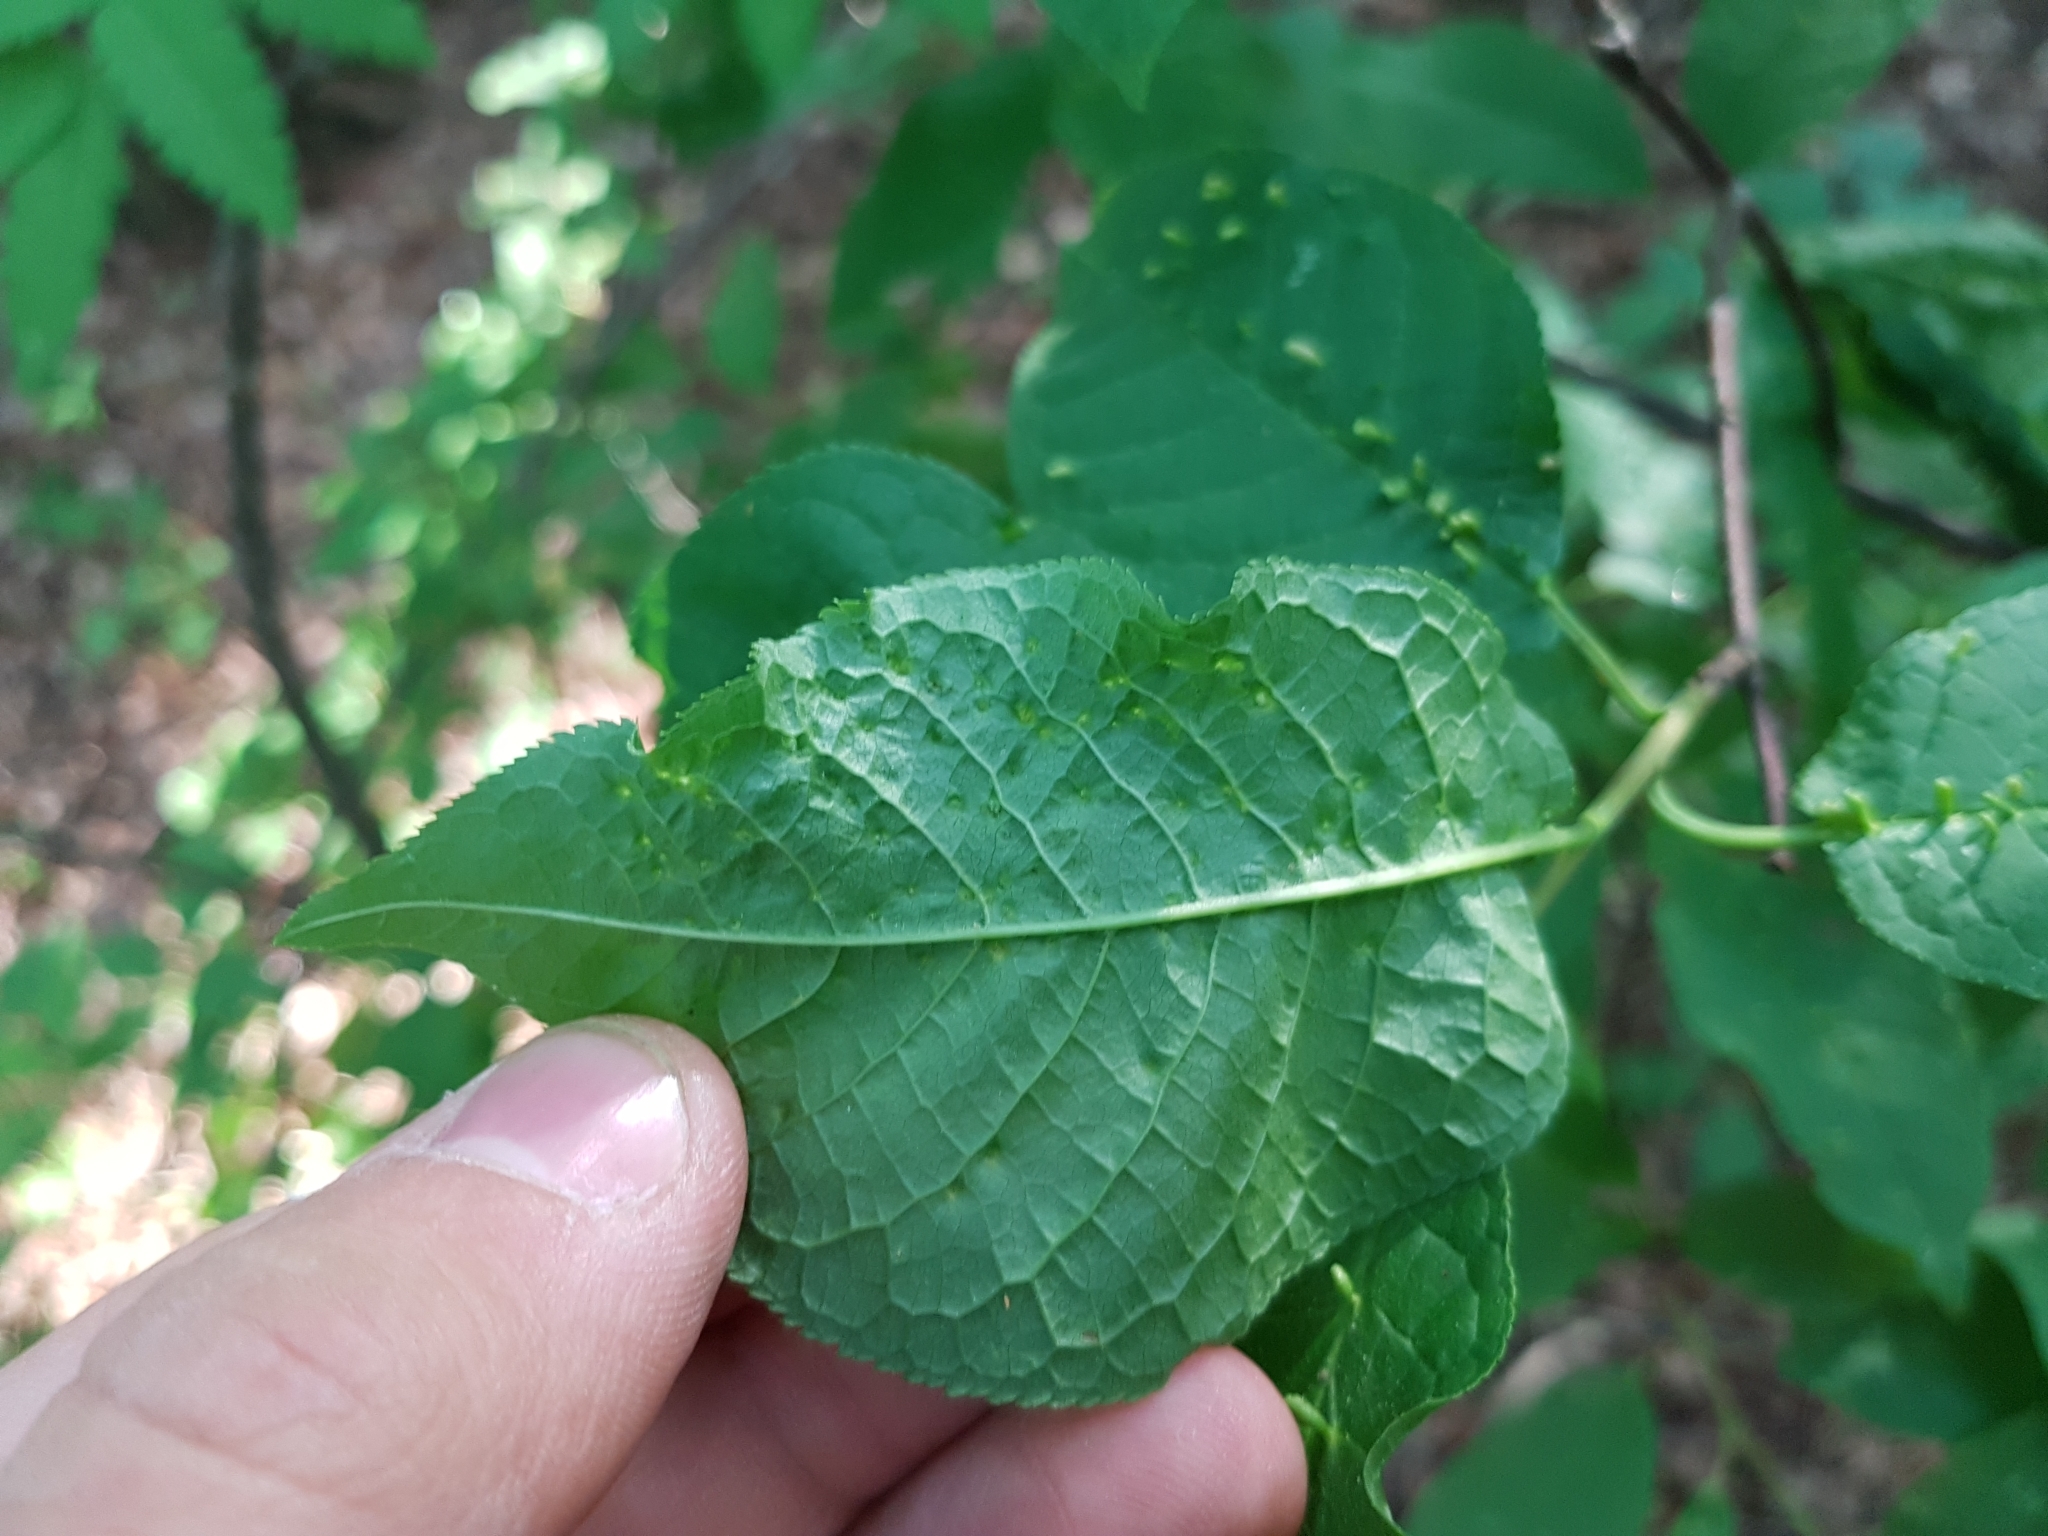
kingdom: Animalia
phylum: Arthropoda
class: Arachnida
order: Trombidiformes
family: Eriophyidae
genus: Phyllocoptes
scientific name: Phyllocoptes eupadi
